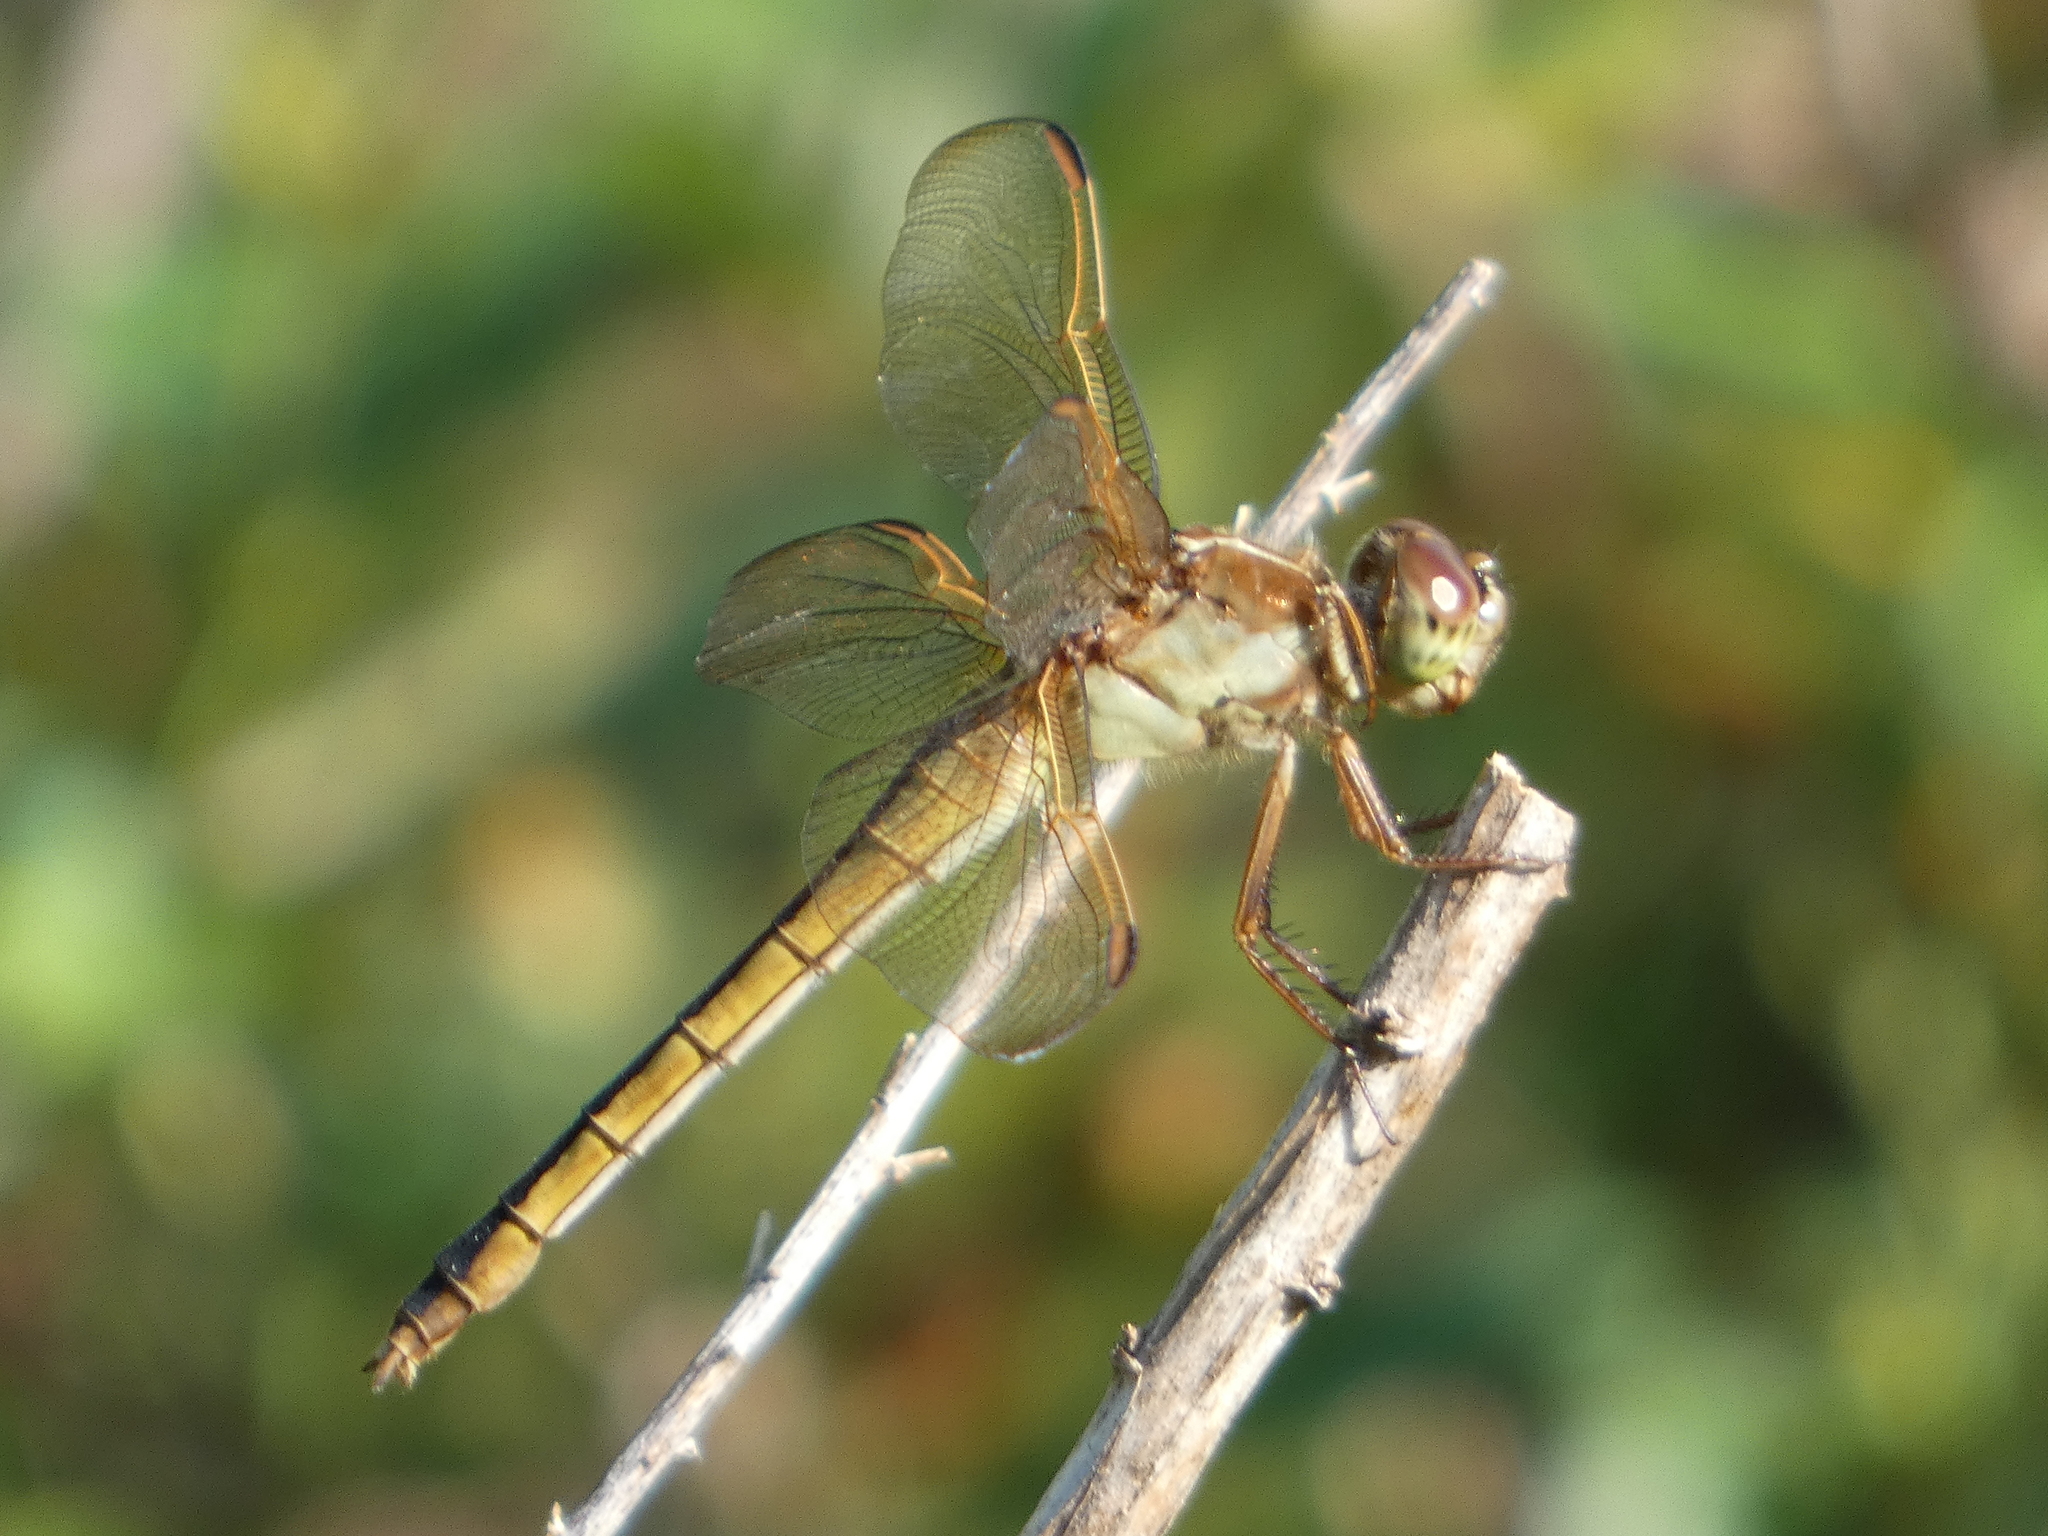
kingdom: Animalia
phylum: Arthropoda
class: Insecta
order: Odonata
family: Libellulidae
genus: Libellula
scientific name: Libellula needhami
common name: Needham's skimmer
